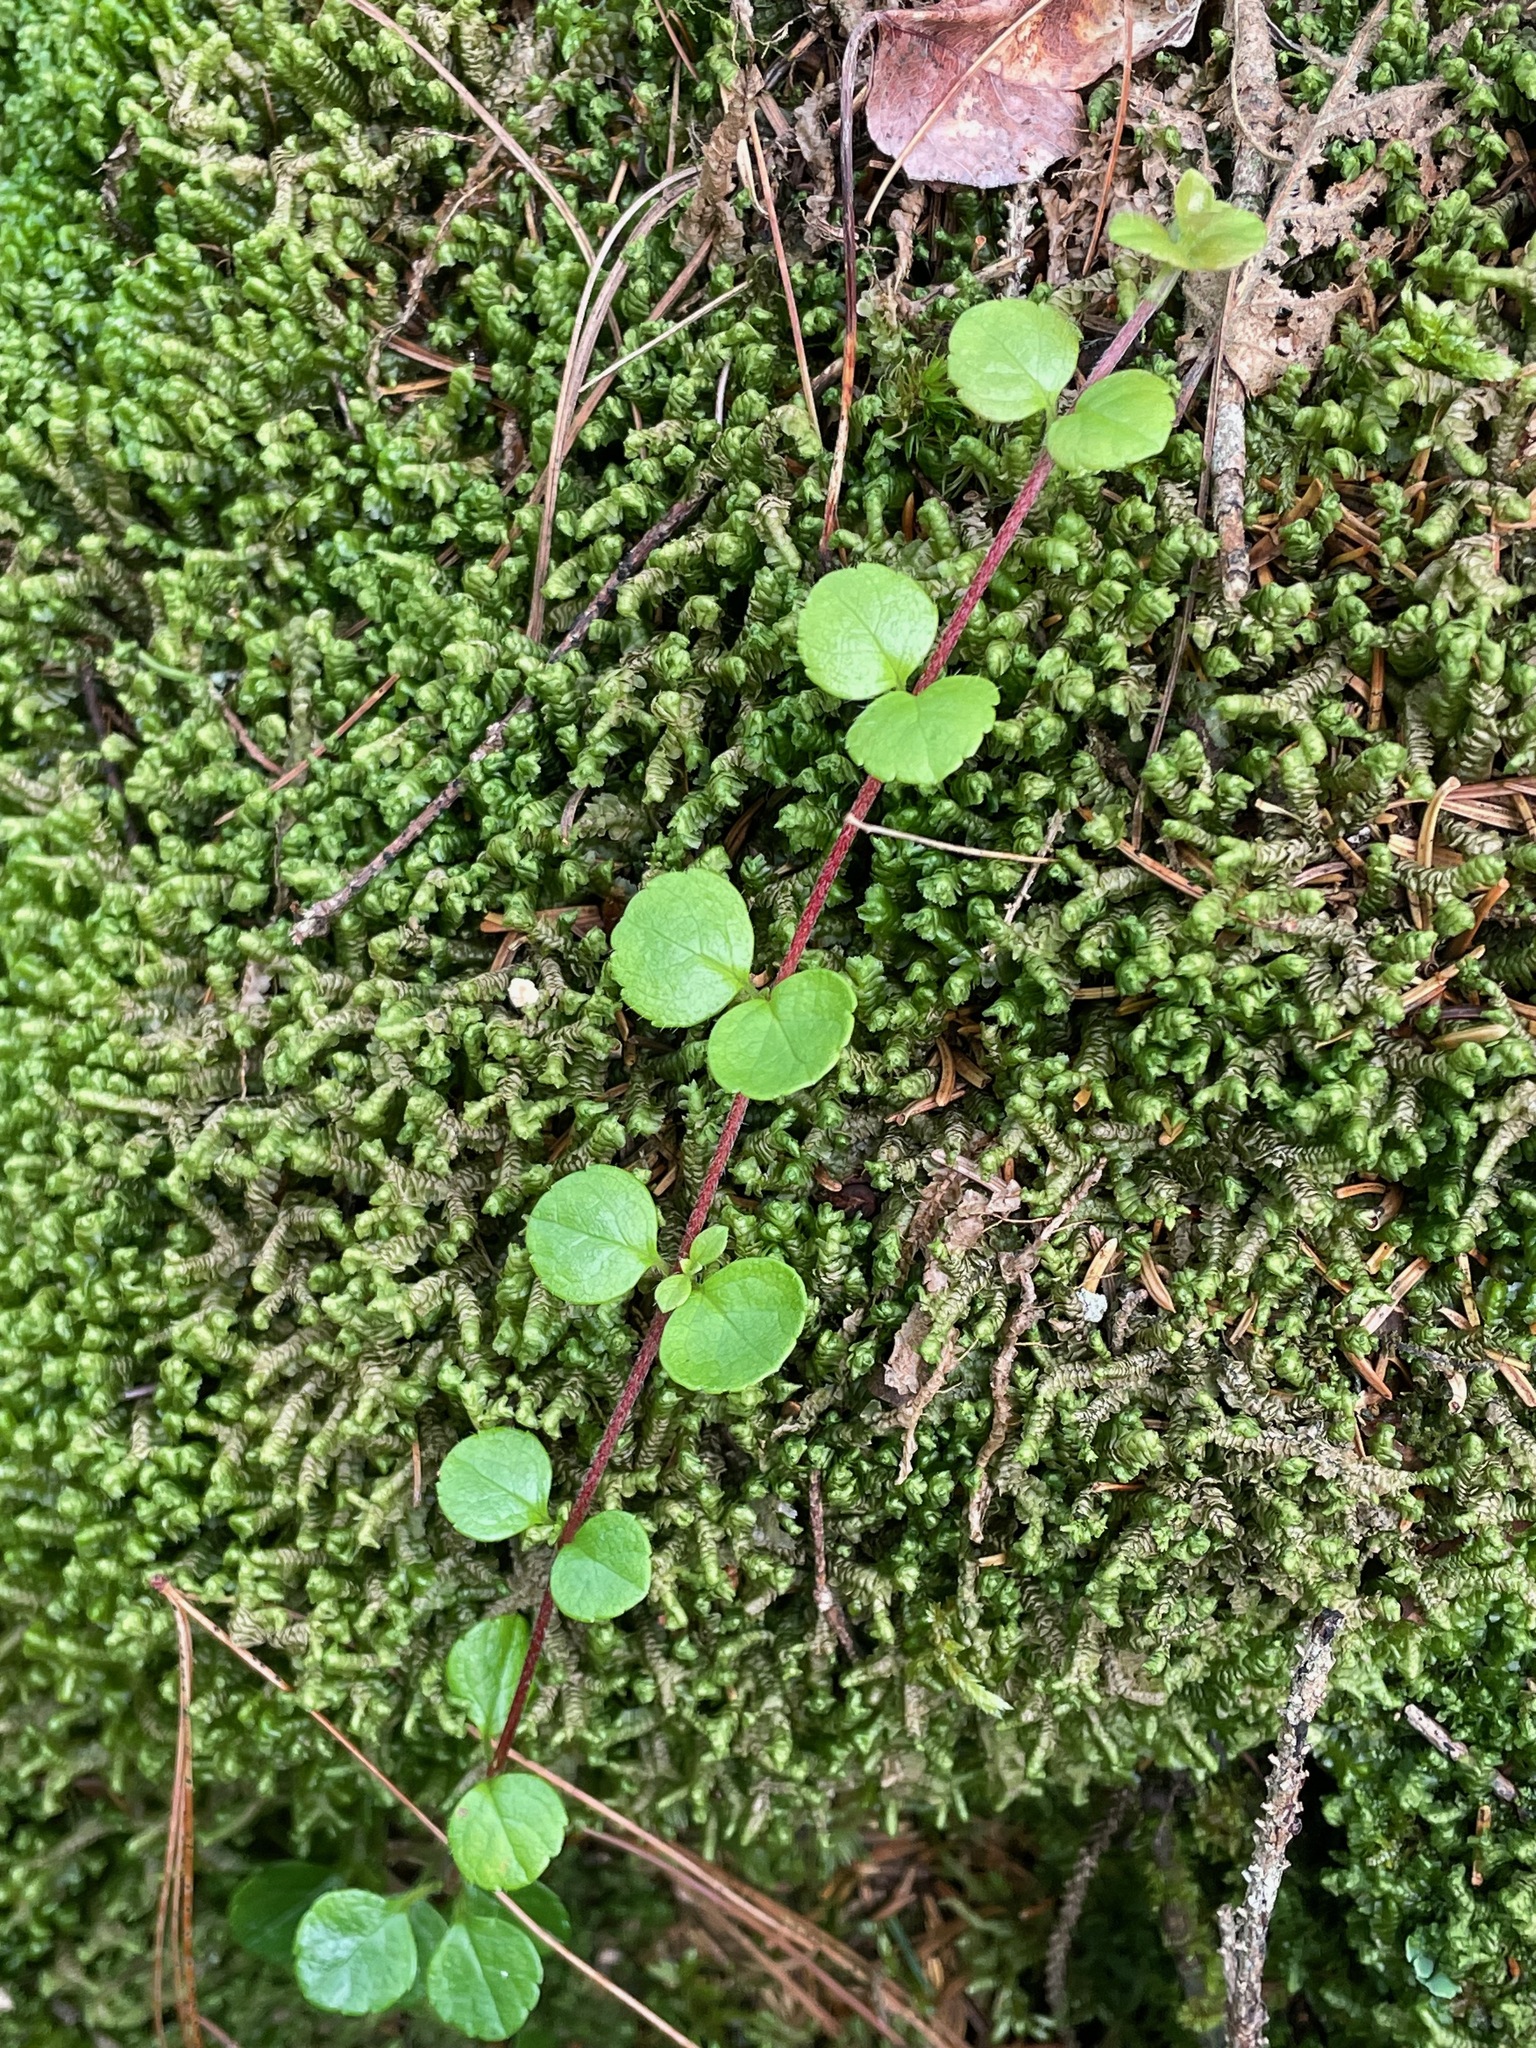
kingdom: Plantae
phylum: Tracheophyta
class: Magnoliopsida
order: Dipsacales
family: Caprifoliaceae
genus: Linnaea
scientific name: Linnaea borealis
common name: Twinflower
